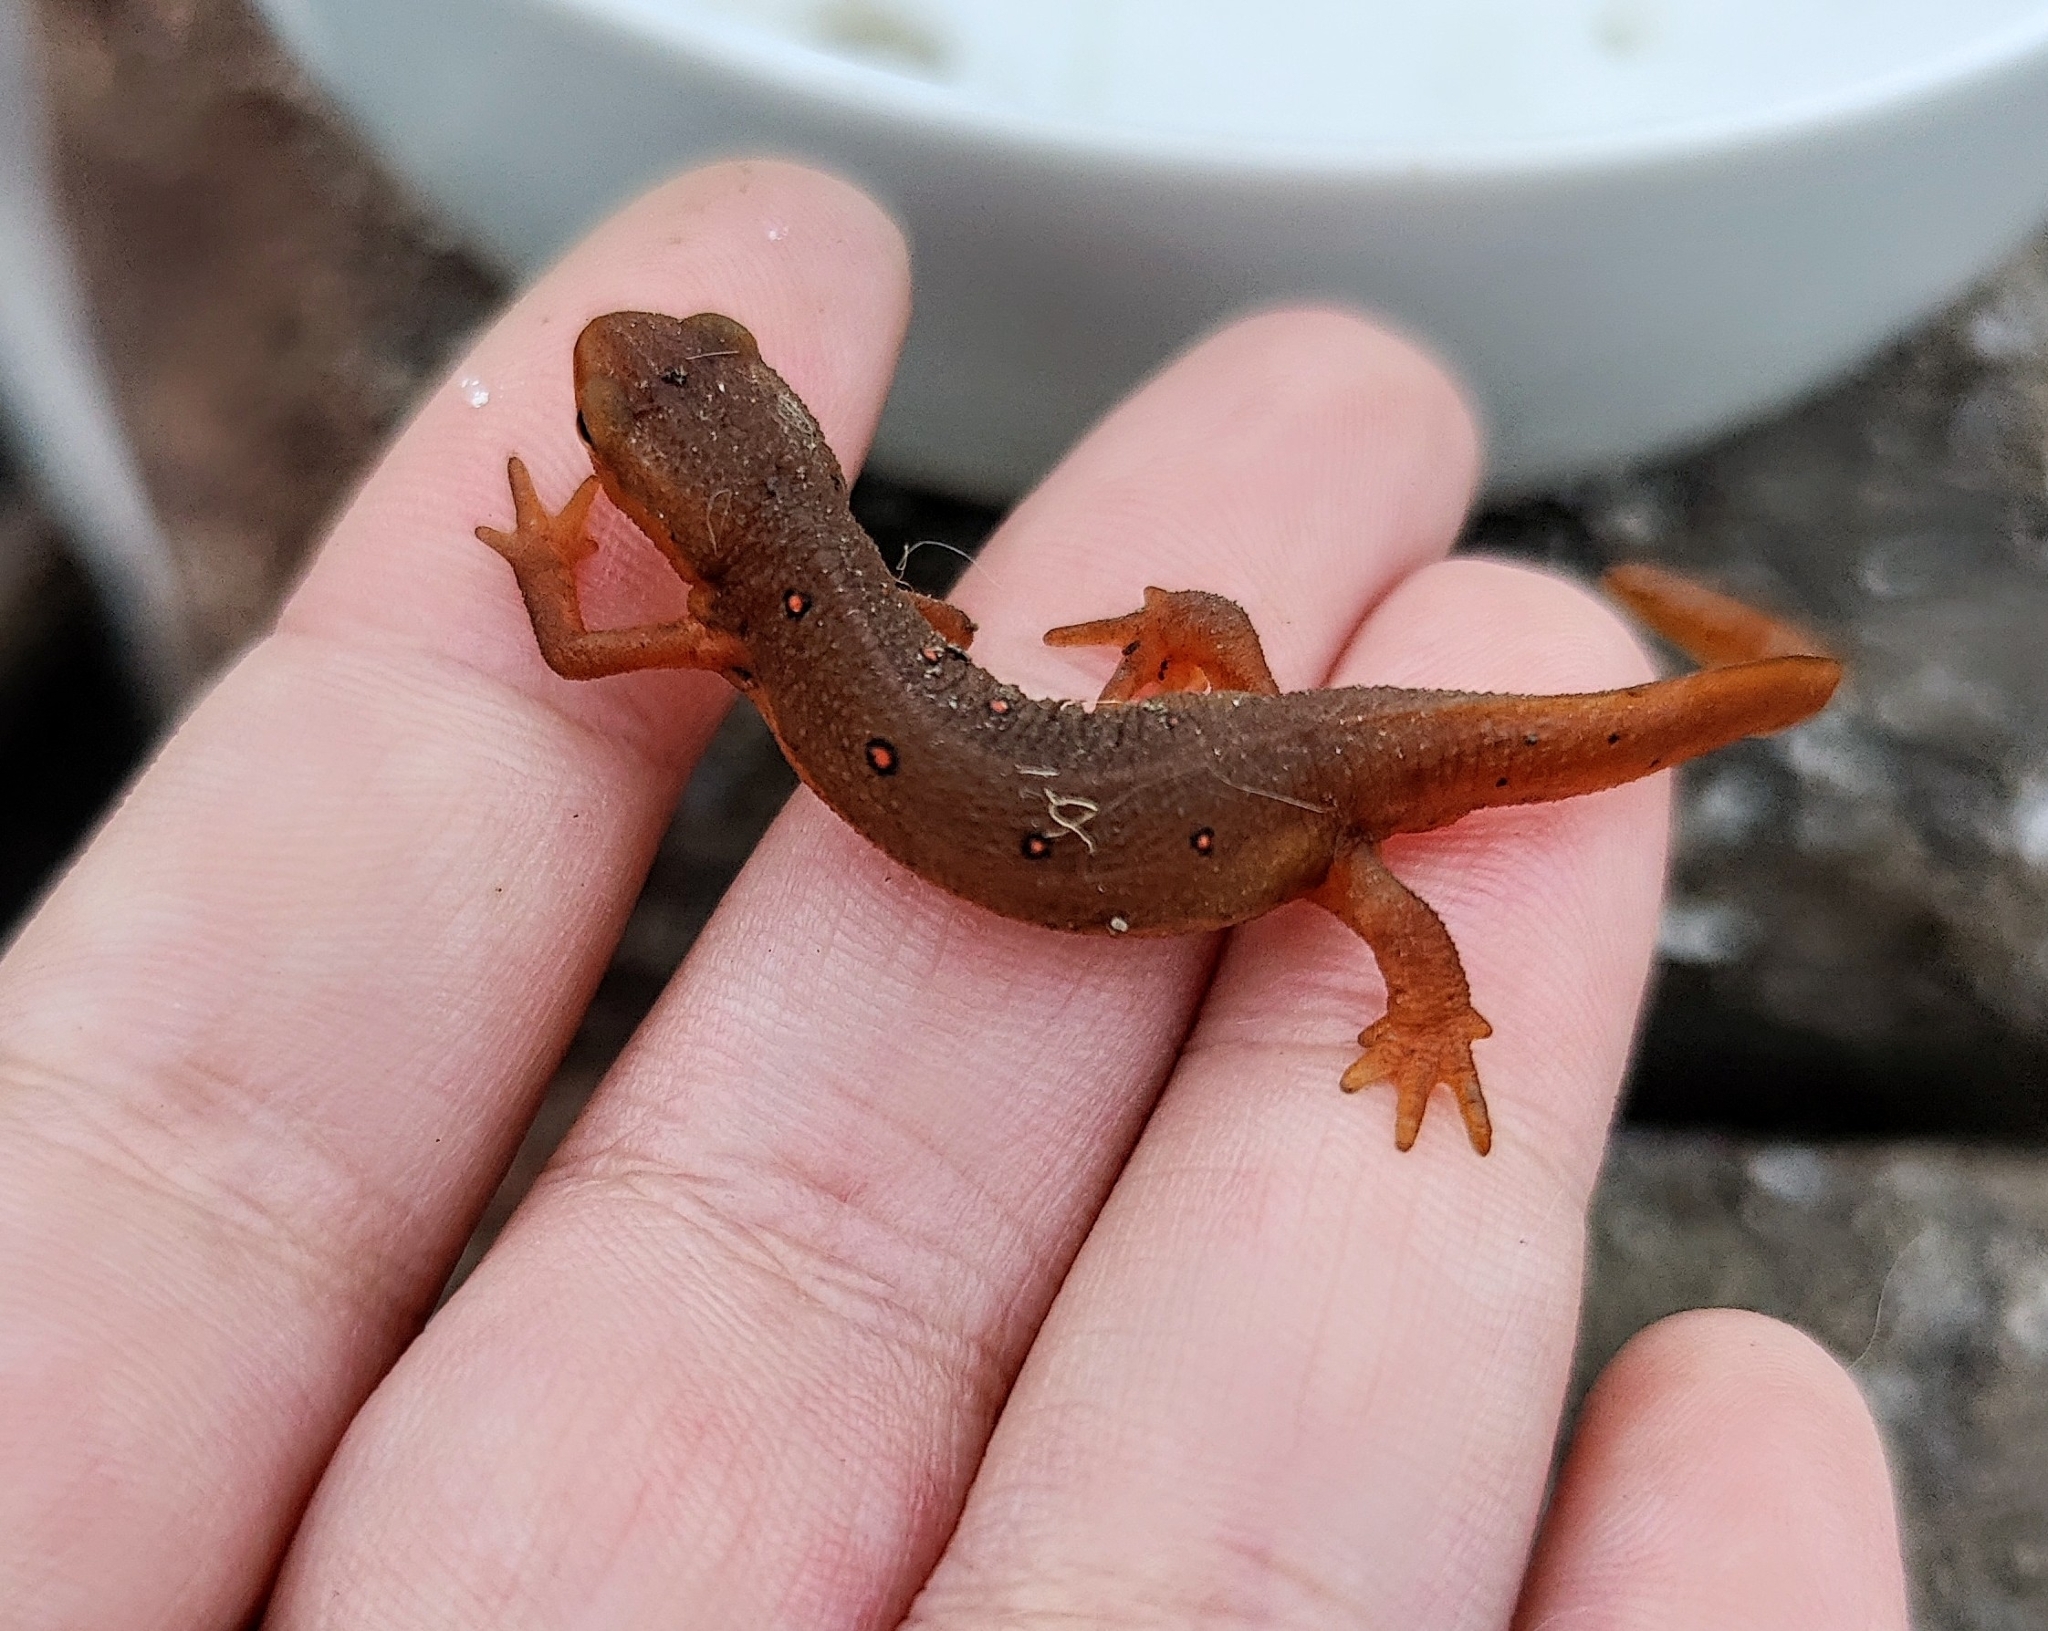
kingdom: Animalia
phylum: Chordata
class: Amphibia
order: Caudata
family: Salamandridae
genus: Notophthalmus
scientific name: Notophthalmus viridescens
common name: Eastern newt
